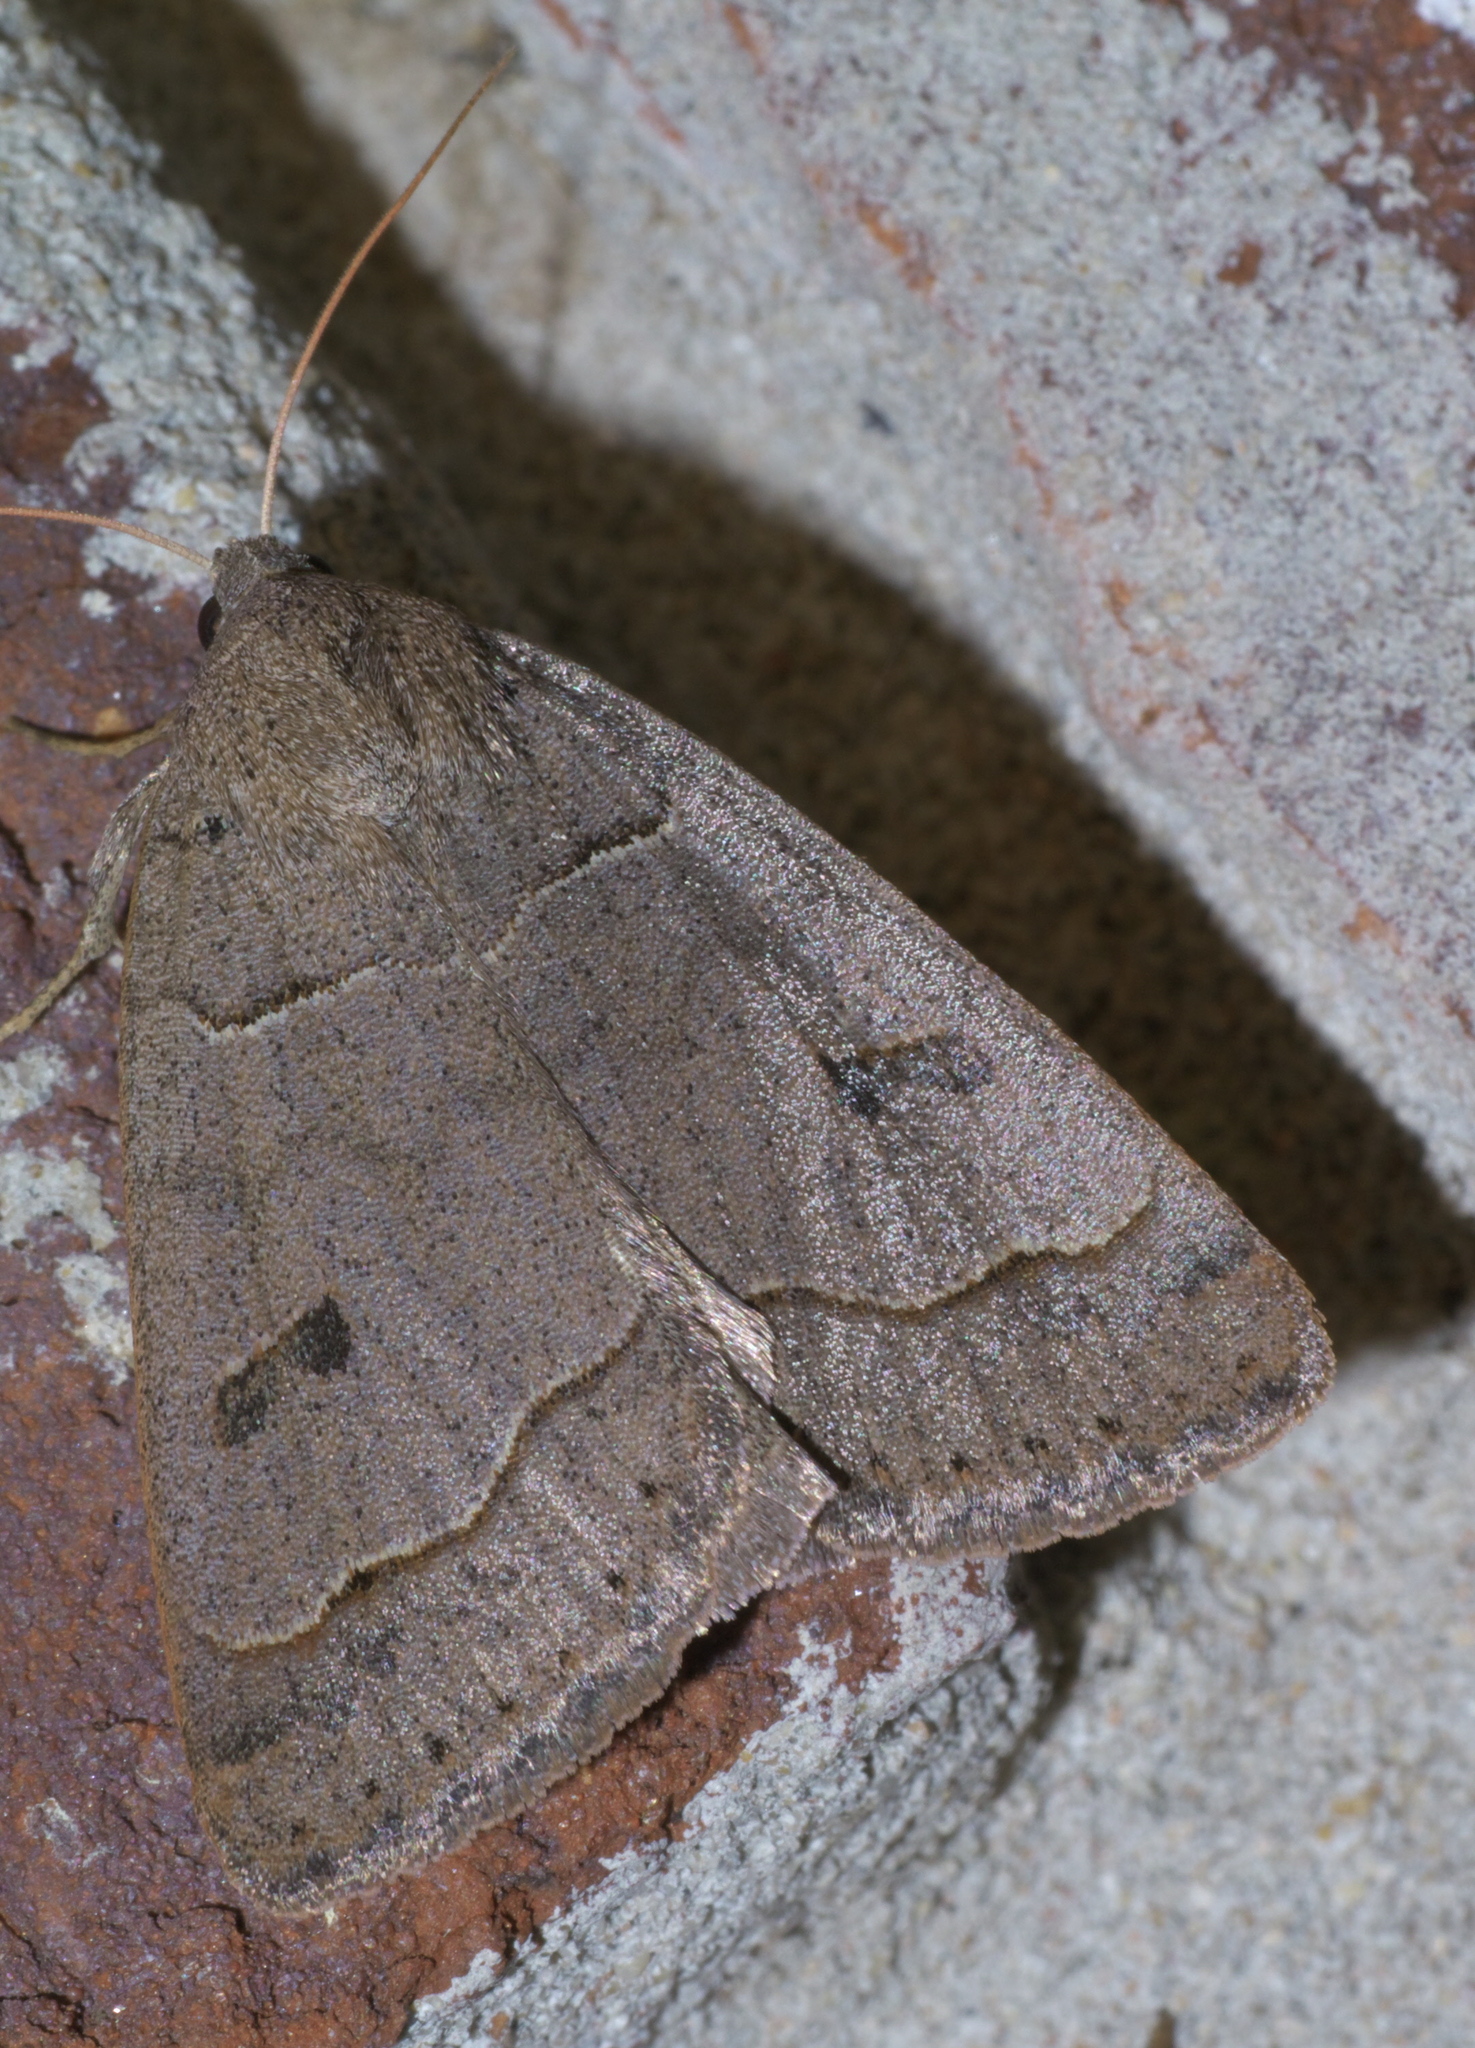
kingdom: Animalia
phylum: Arthropoda
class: Insecta
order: Lepidoptera
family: Erebidae
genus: Phoberia
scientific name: Phoberia atomaris
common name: Common oak moth
